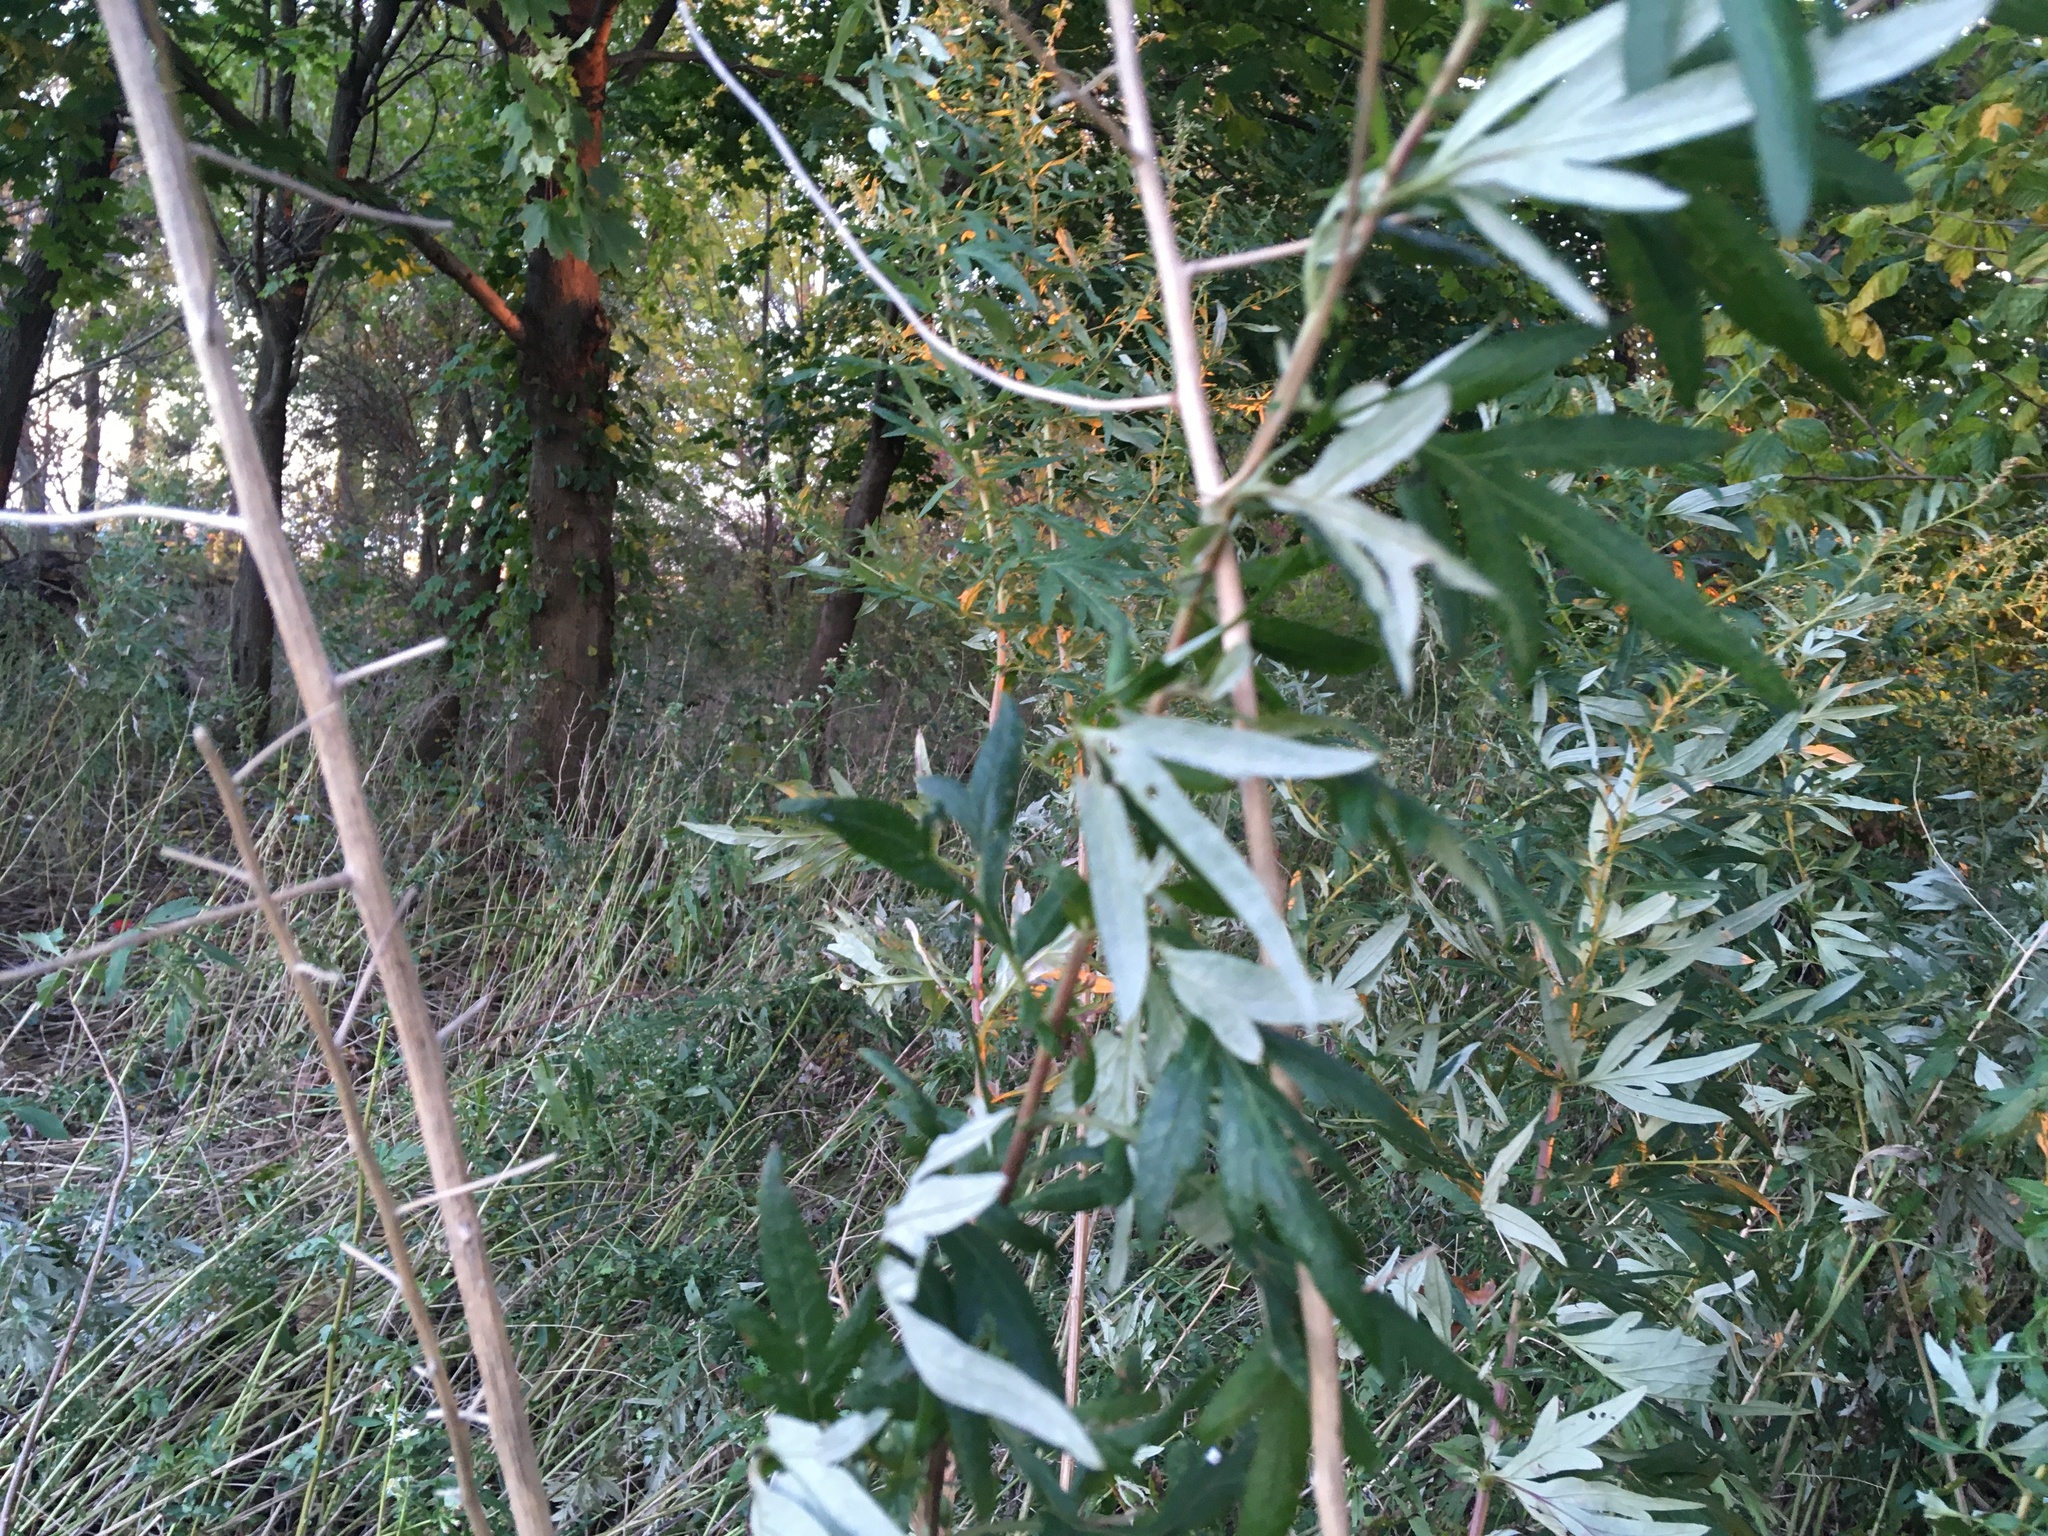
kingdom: Plantae
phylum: Tracheophyta
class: Magnoliopsida
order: Asterales
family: Asteraceae
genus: Artemisia
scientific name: Artemisia vulgaris
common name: Mugwort
